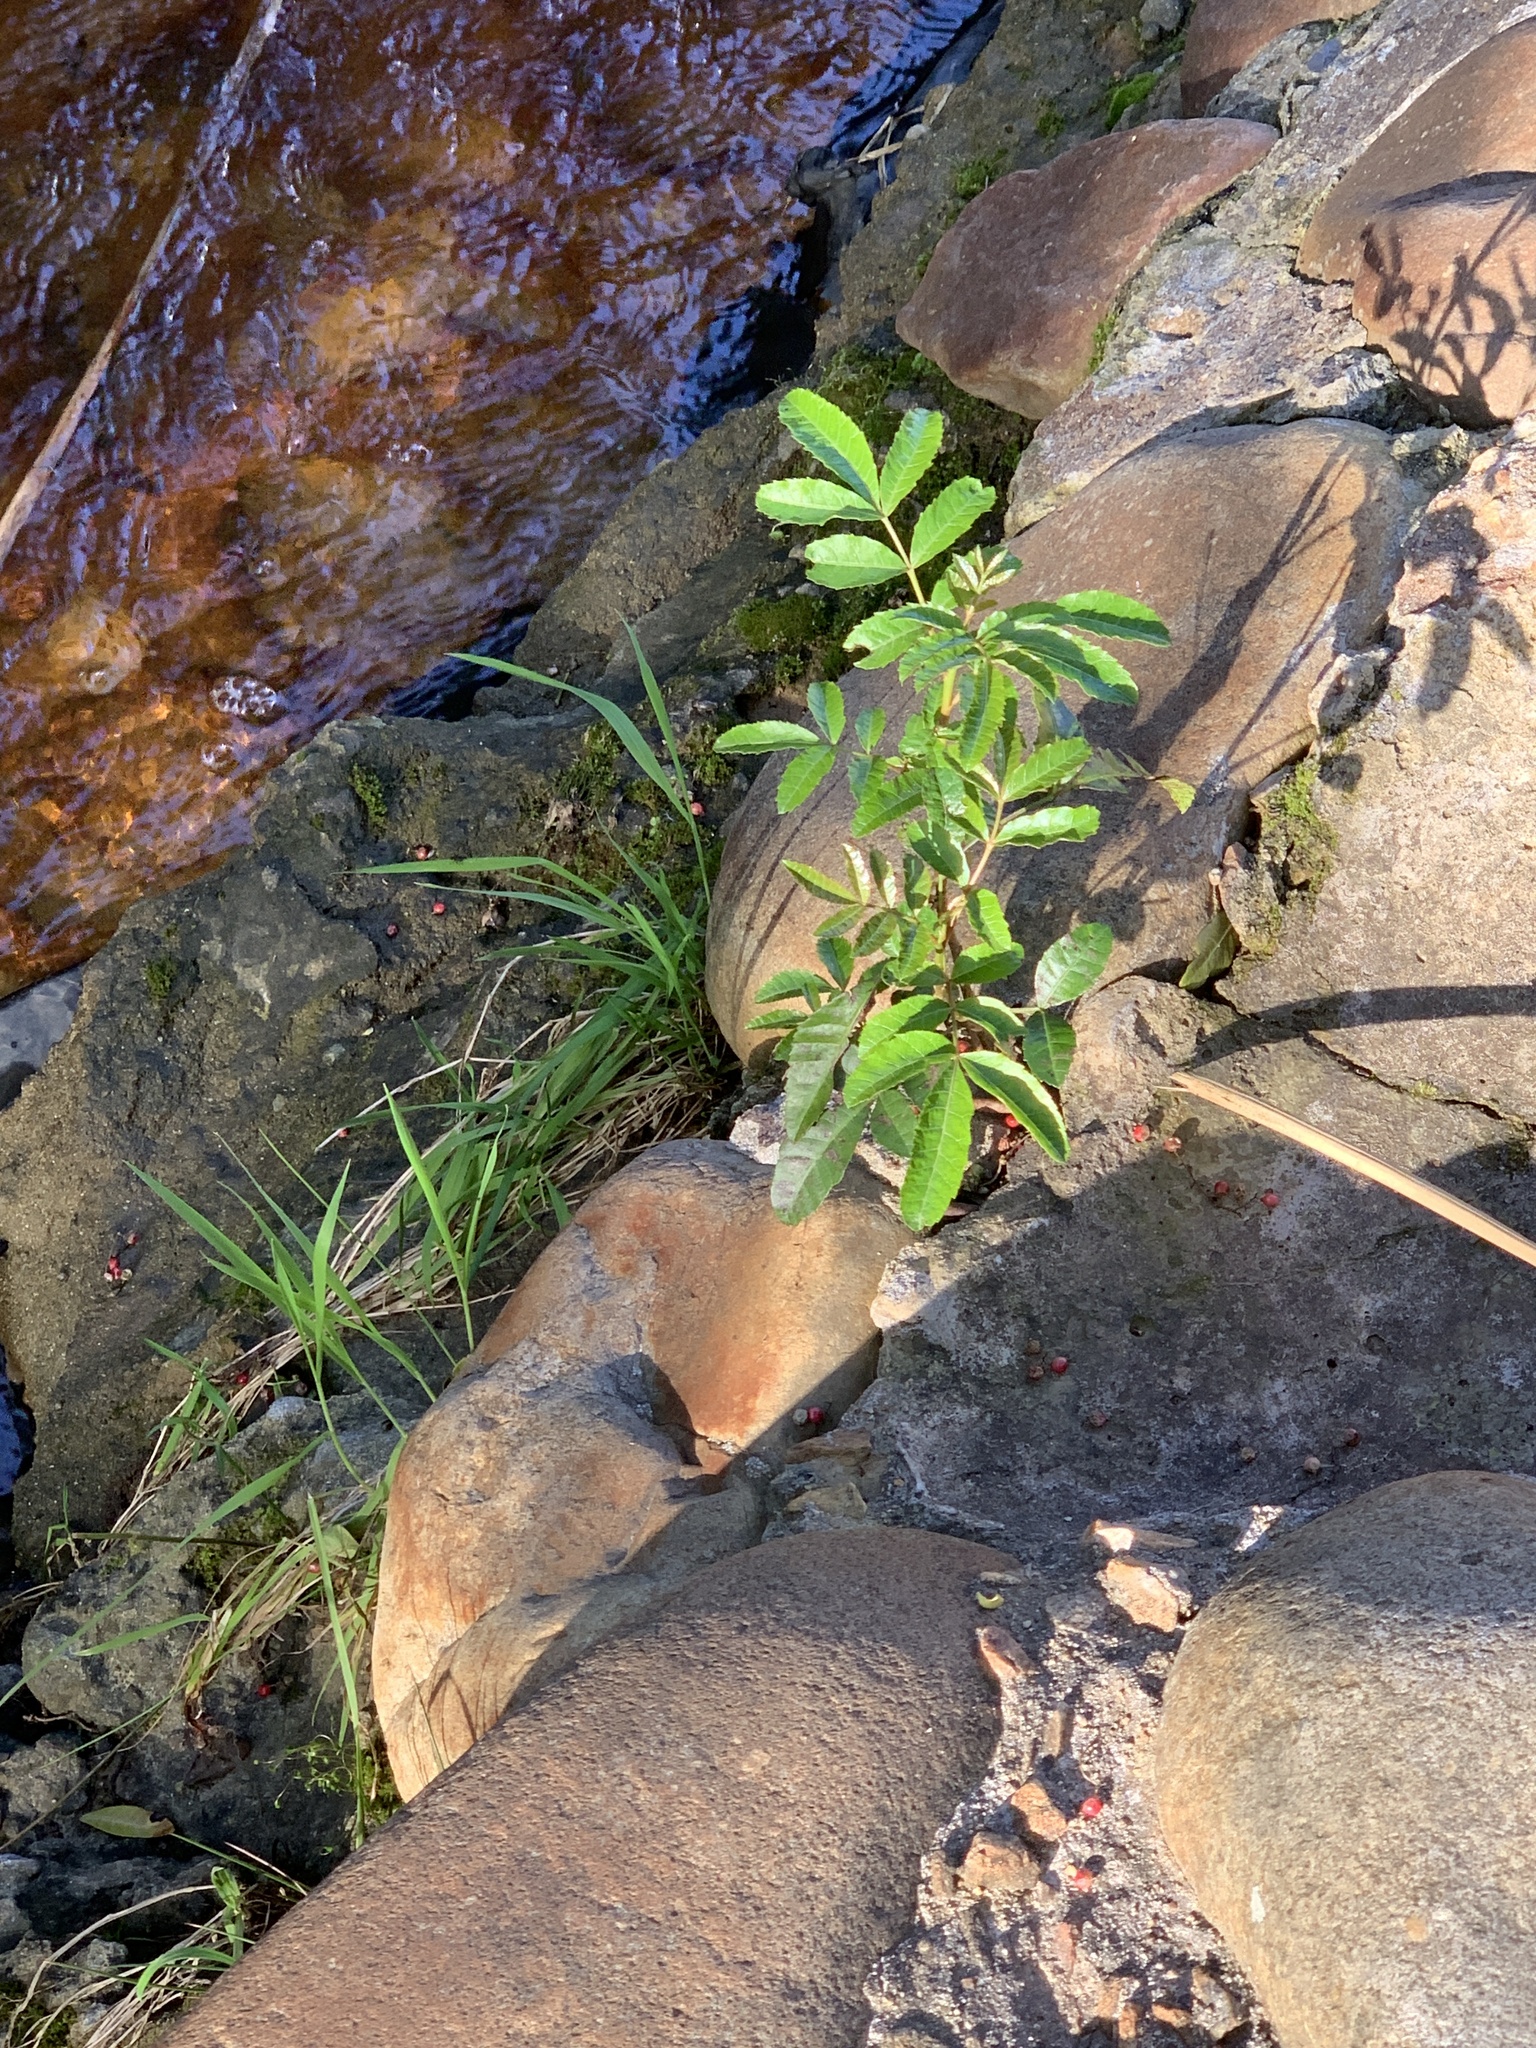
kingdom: Plantae
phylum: Tracheophyta
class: Magnoliopsida
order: Sapindales
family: Anacardiaceae
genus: Schinus
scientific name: Schinus terebinthifolia
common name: Brazilian peppertree
